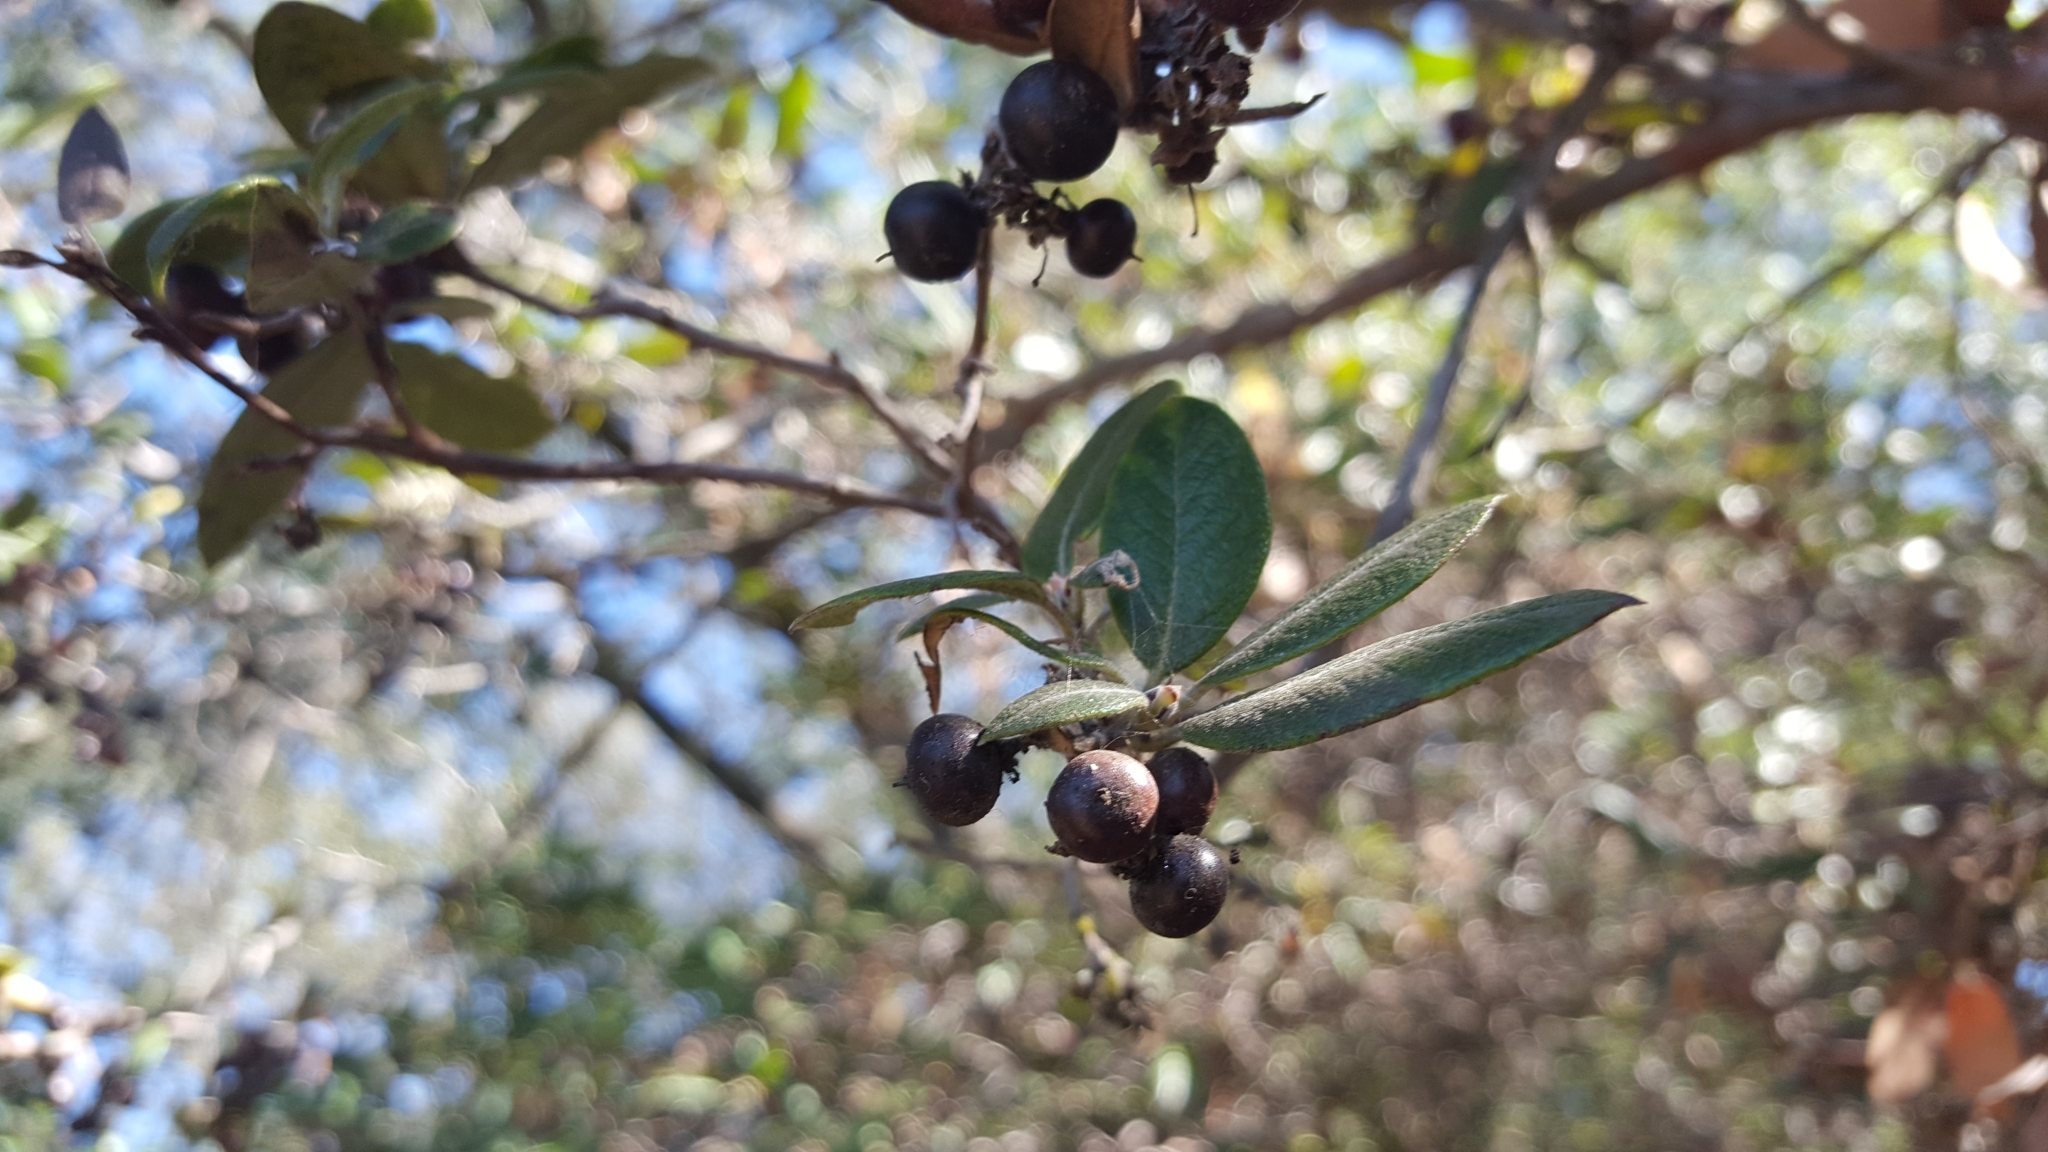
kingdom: Plantae
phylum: Tracheophyta
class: Magnoliopsida
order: Ericales
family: Ericaceae
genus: Arctostaphylos
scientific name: Arctostaphylos bicolor
